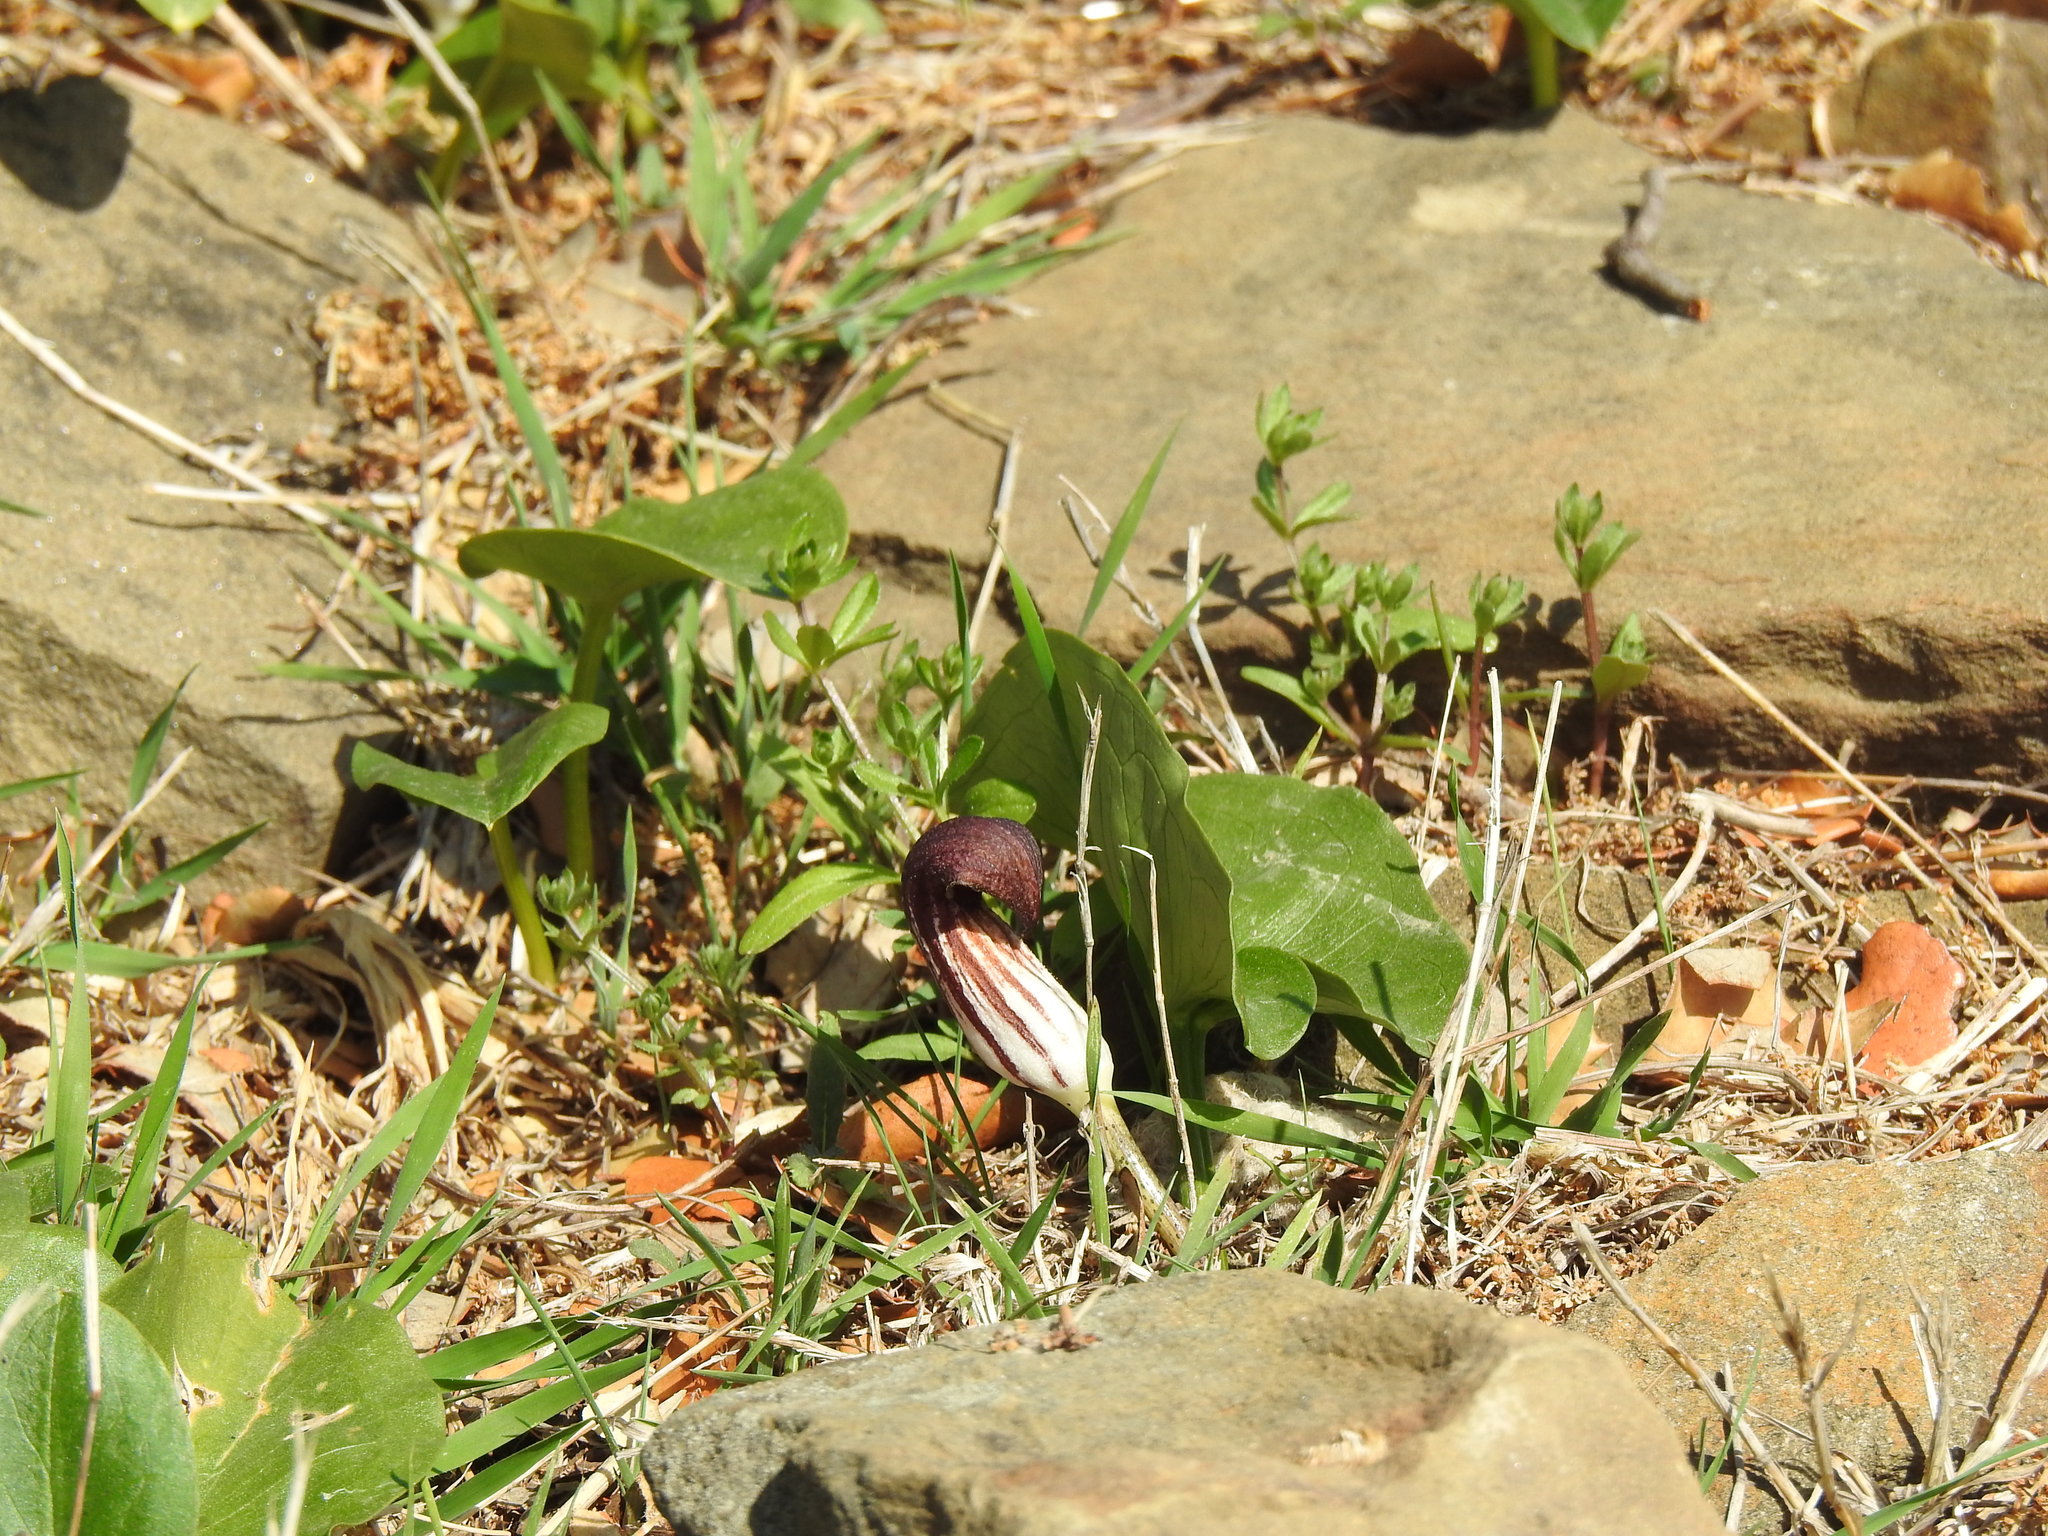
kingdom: Plantae
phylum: Tracheophyta
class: Liliopsida
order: Alismatales
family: Araceae
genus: Arisarum
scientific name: Arisarum simorrhinum
